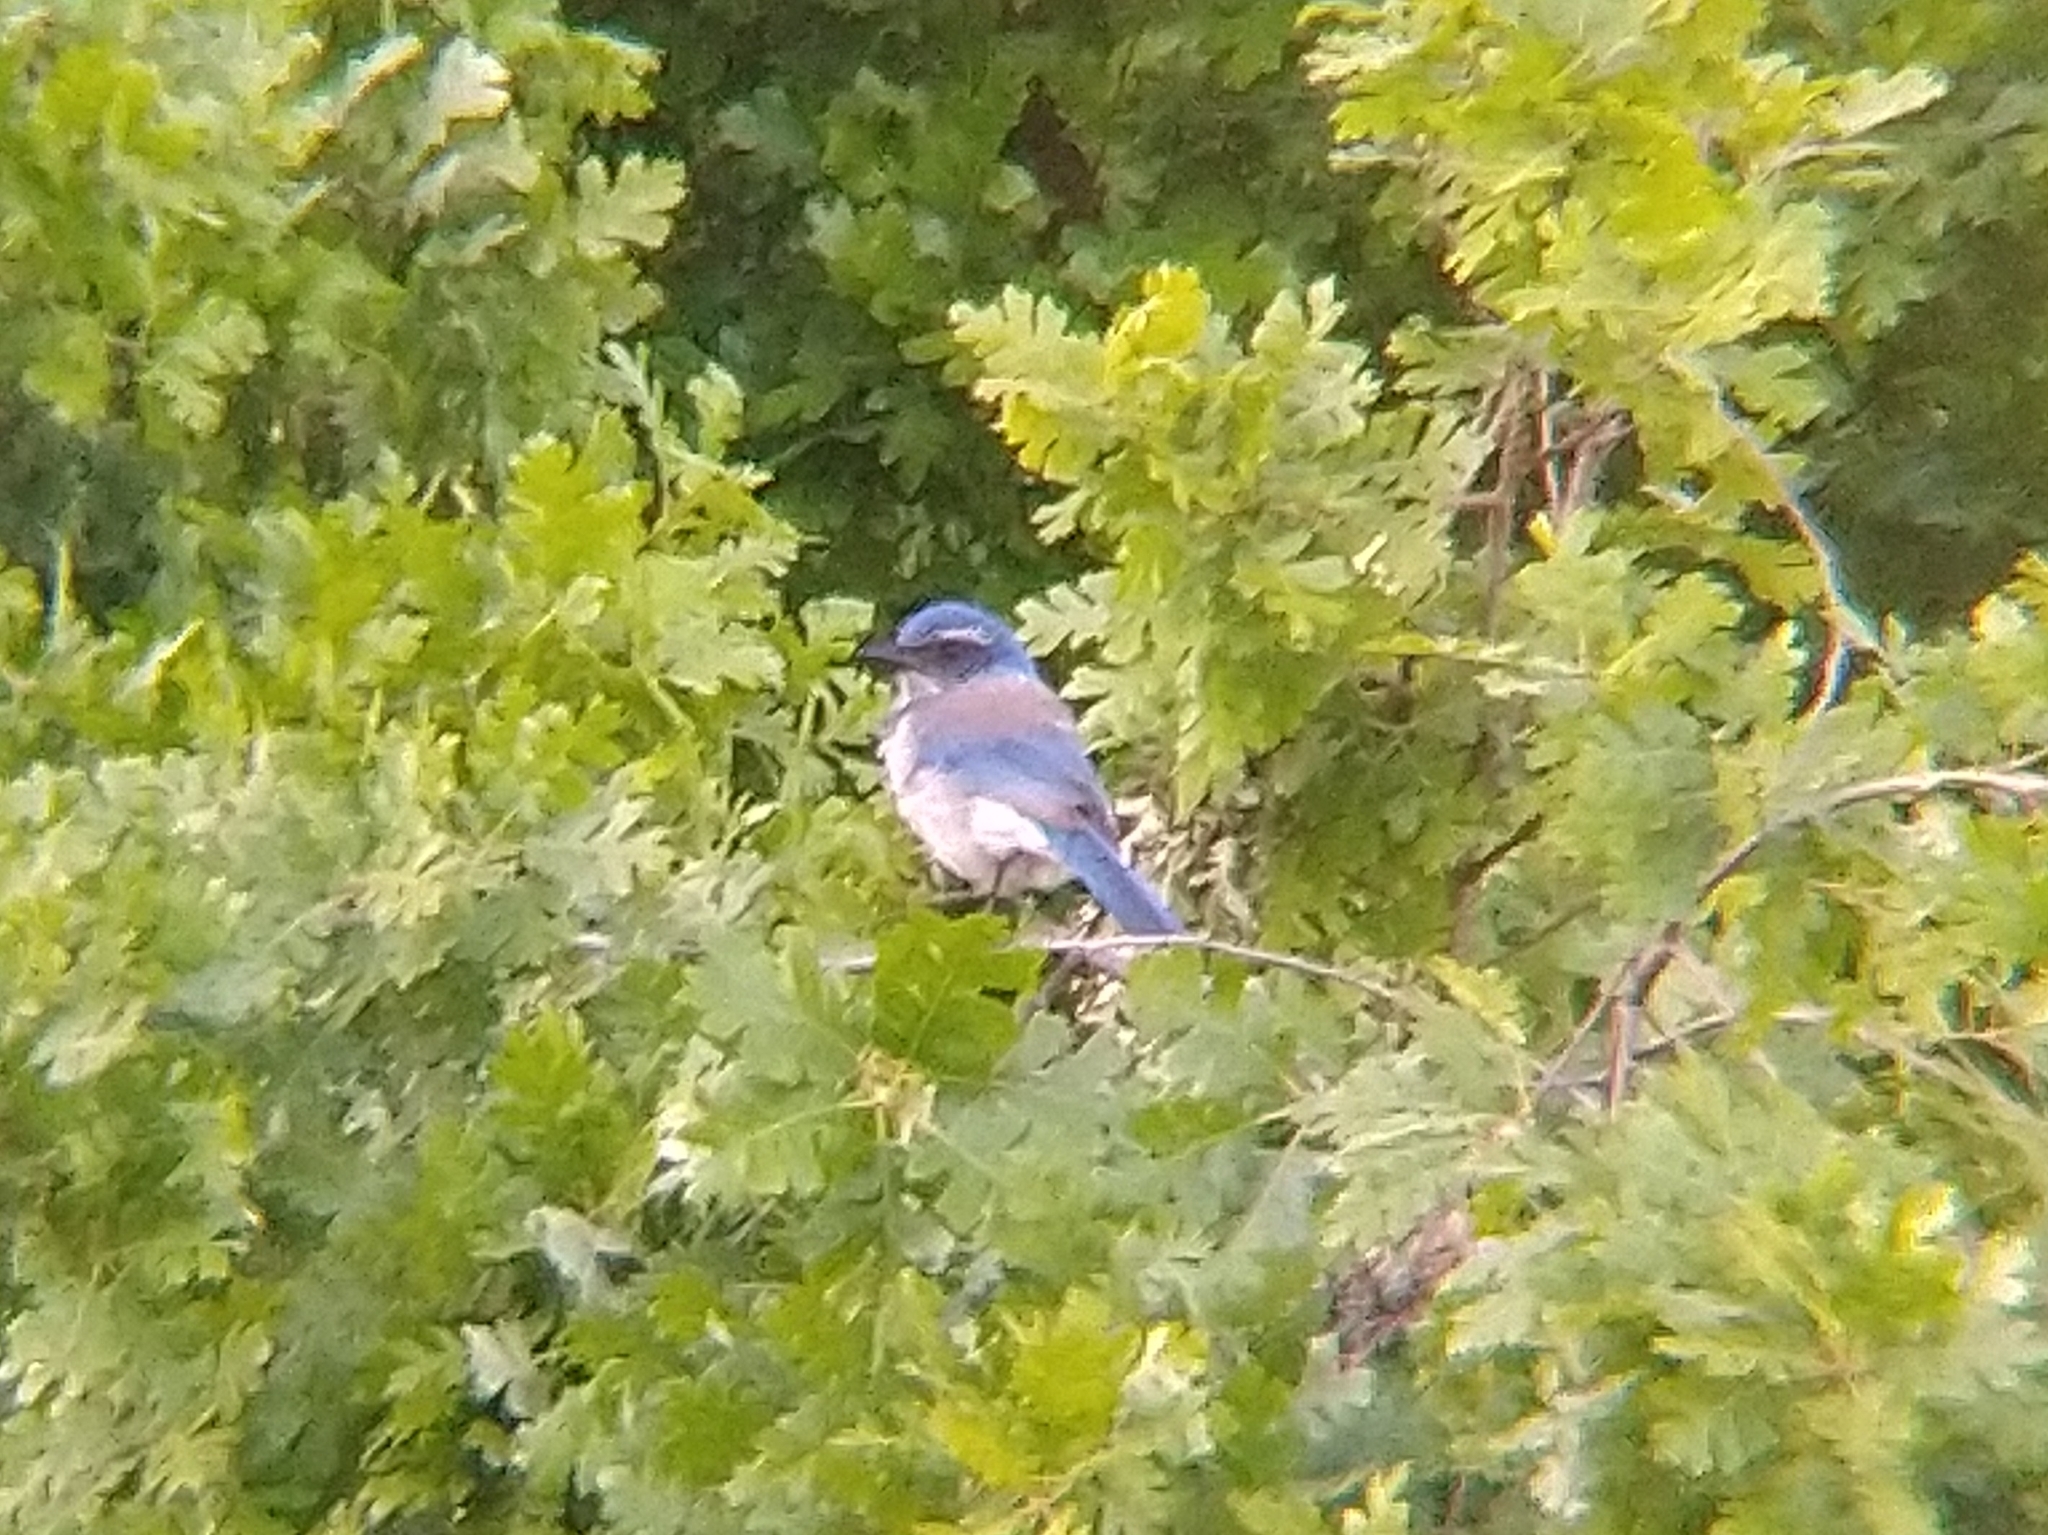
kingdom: Animalia
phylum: Chordata
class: Aves
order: Passeriformes
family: Corvidae
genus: Aphelocoma
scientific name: Aphelocoma californica
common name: California scrub-jay
